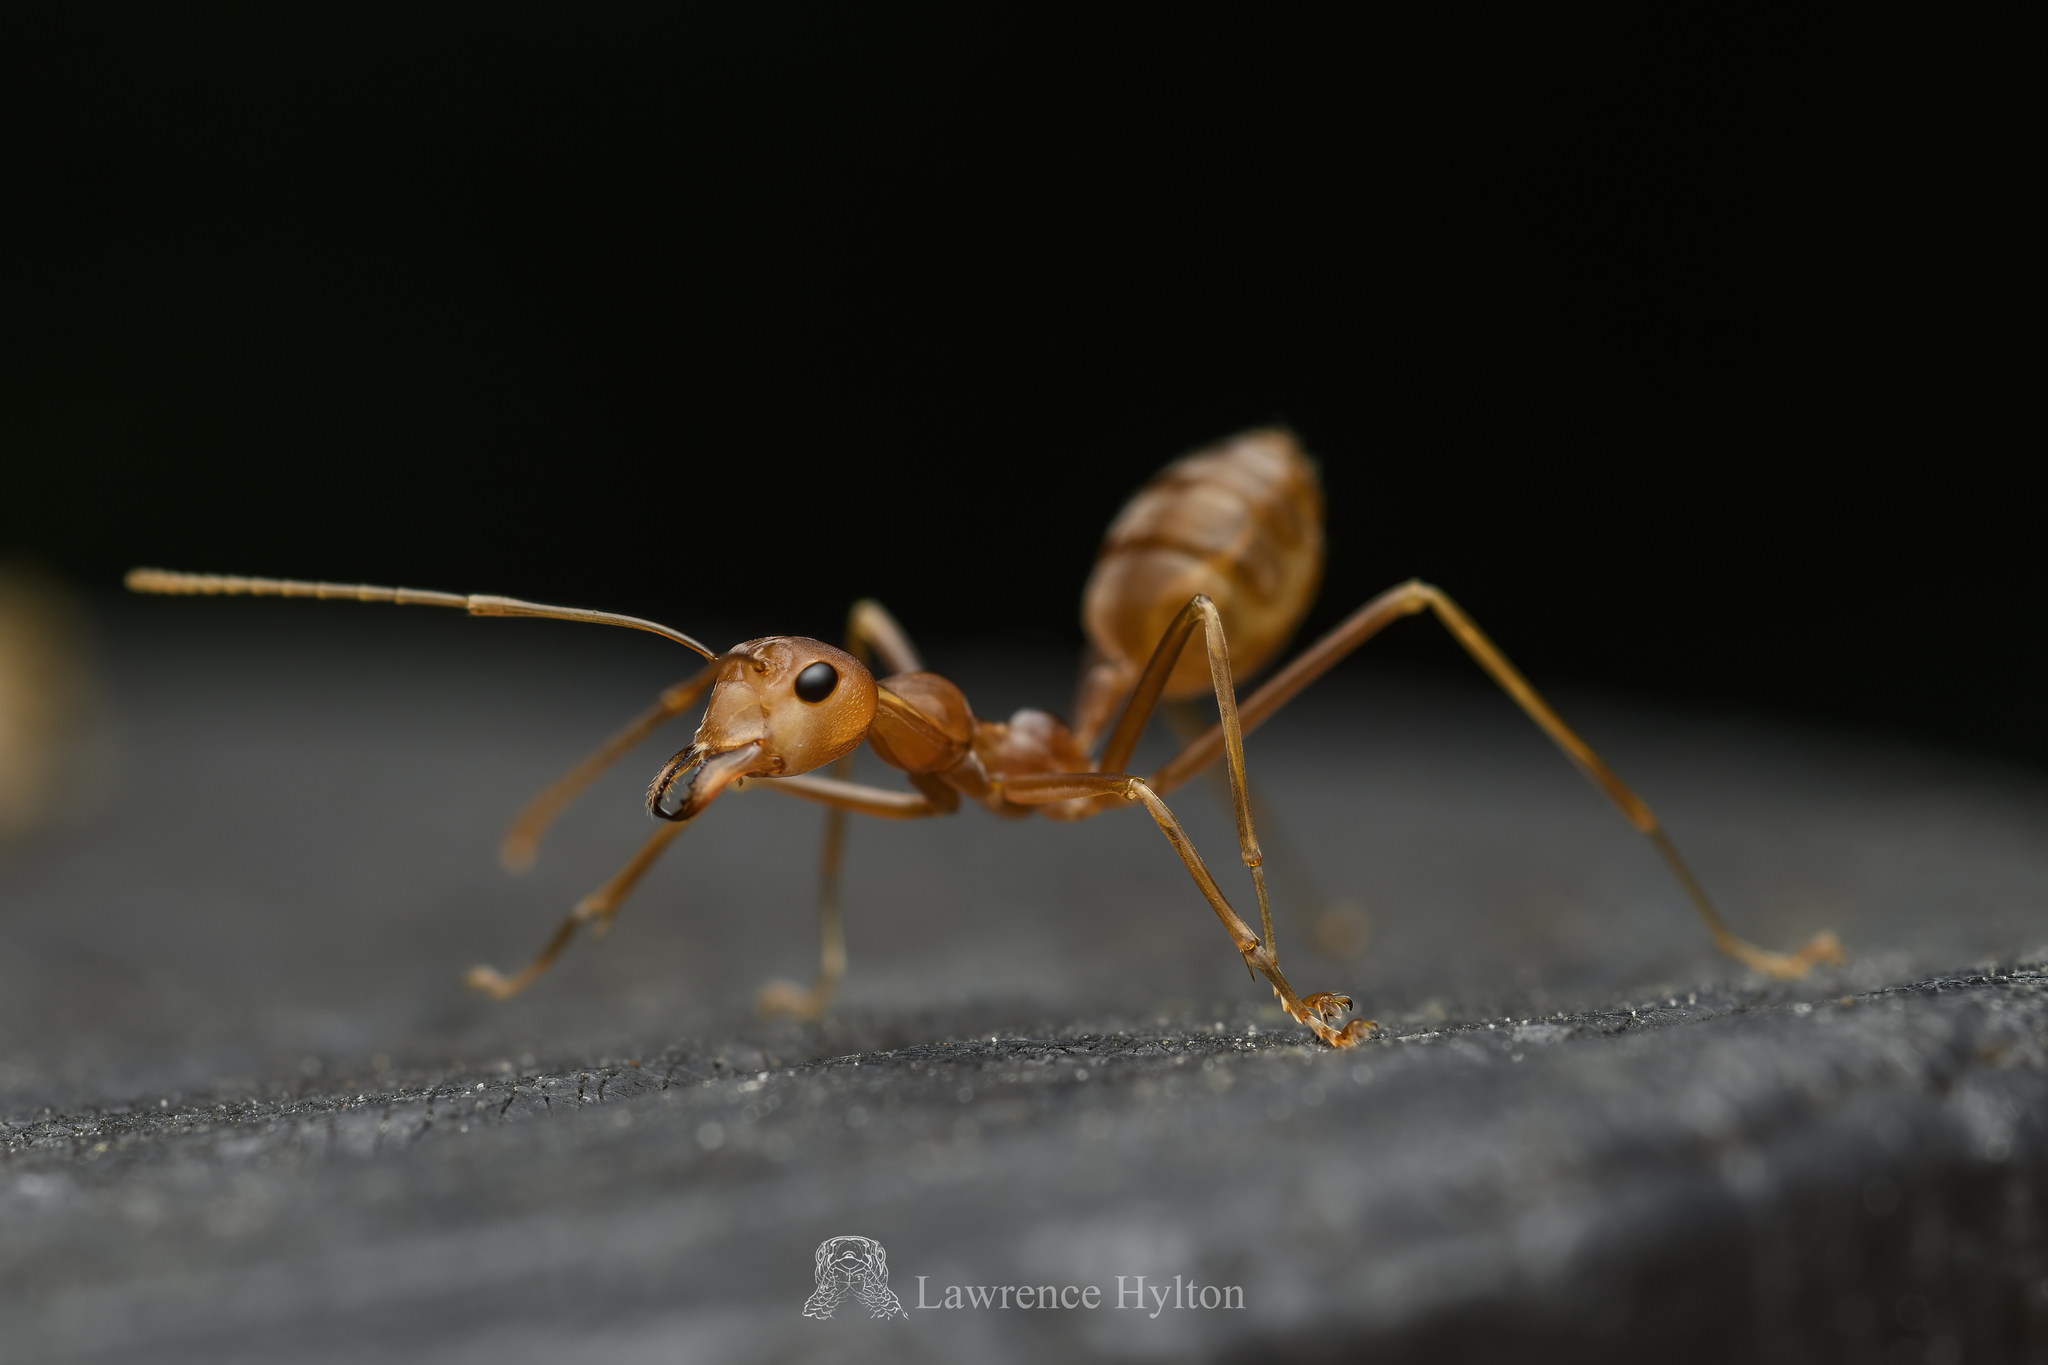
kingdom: Animalia
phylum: Arthropoda
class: Insecta
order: Hymenoptera
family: Formicidae
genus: Oecophylla
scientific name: Oecophylla smaragdina
